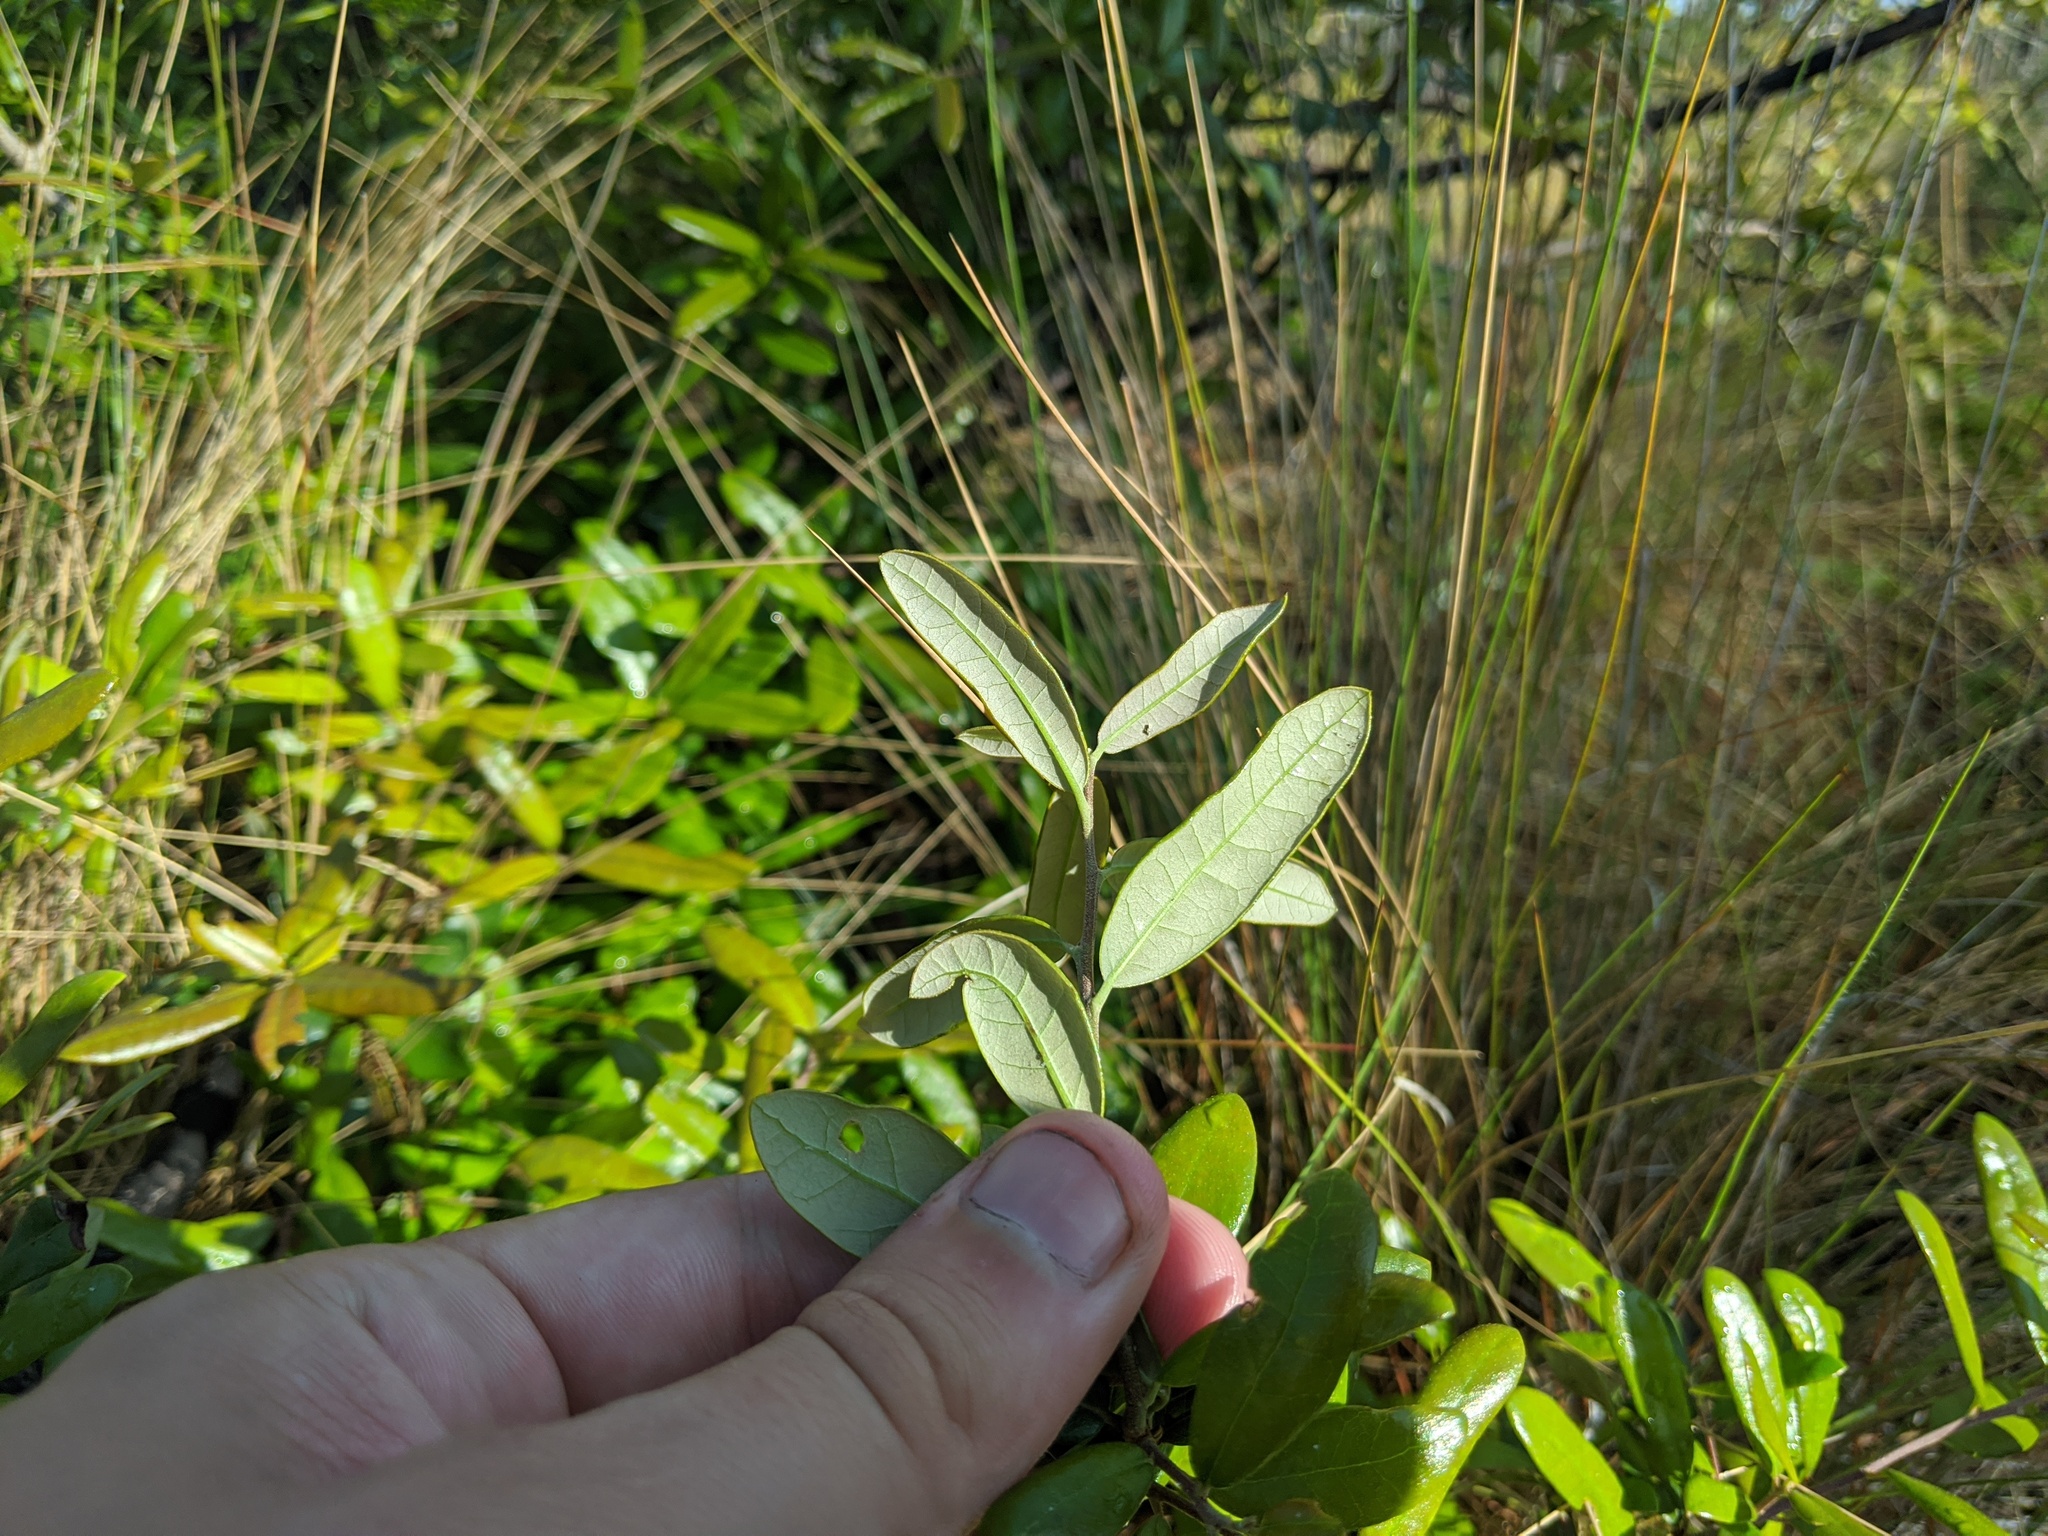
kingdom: Plantae
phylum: Tracheophyta
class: Magnoliopsida
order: Fagales
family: Fagaceae
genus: Quercus
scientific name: Quercus geminata
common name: Sand live oak
